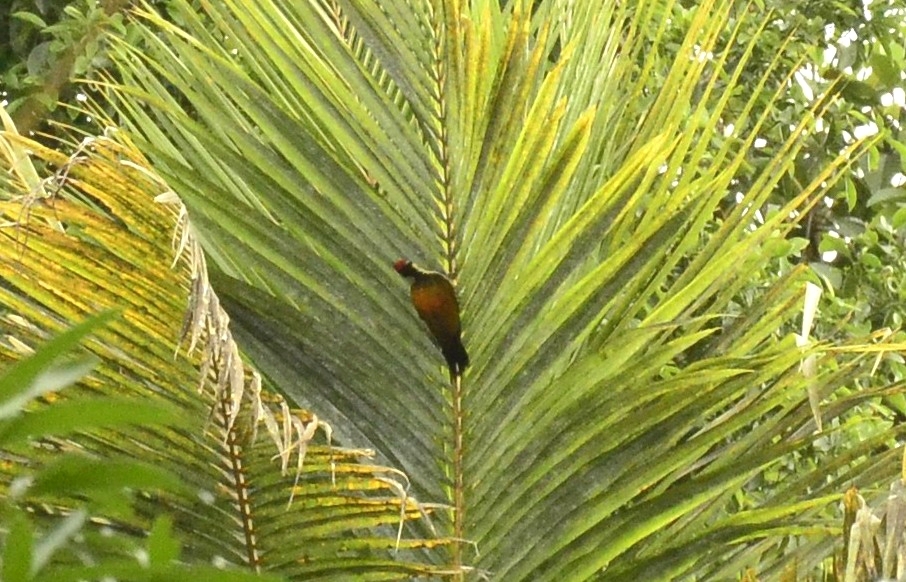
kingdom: Animalia
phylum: Chordata
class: Aves
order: Piciformes
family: Picidae
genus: Dinopium
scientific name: Dinopium benghalense
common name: Black-rumped flameback
